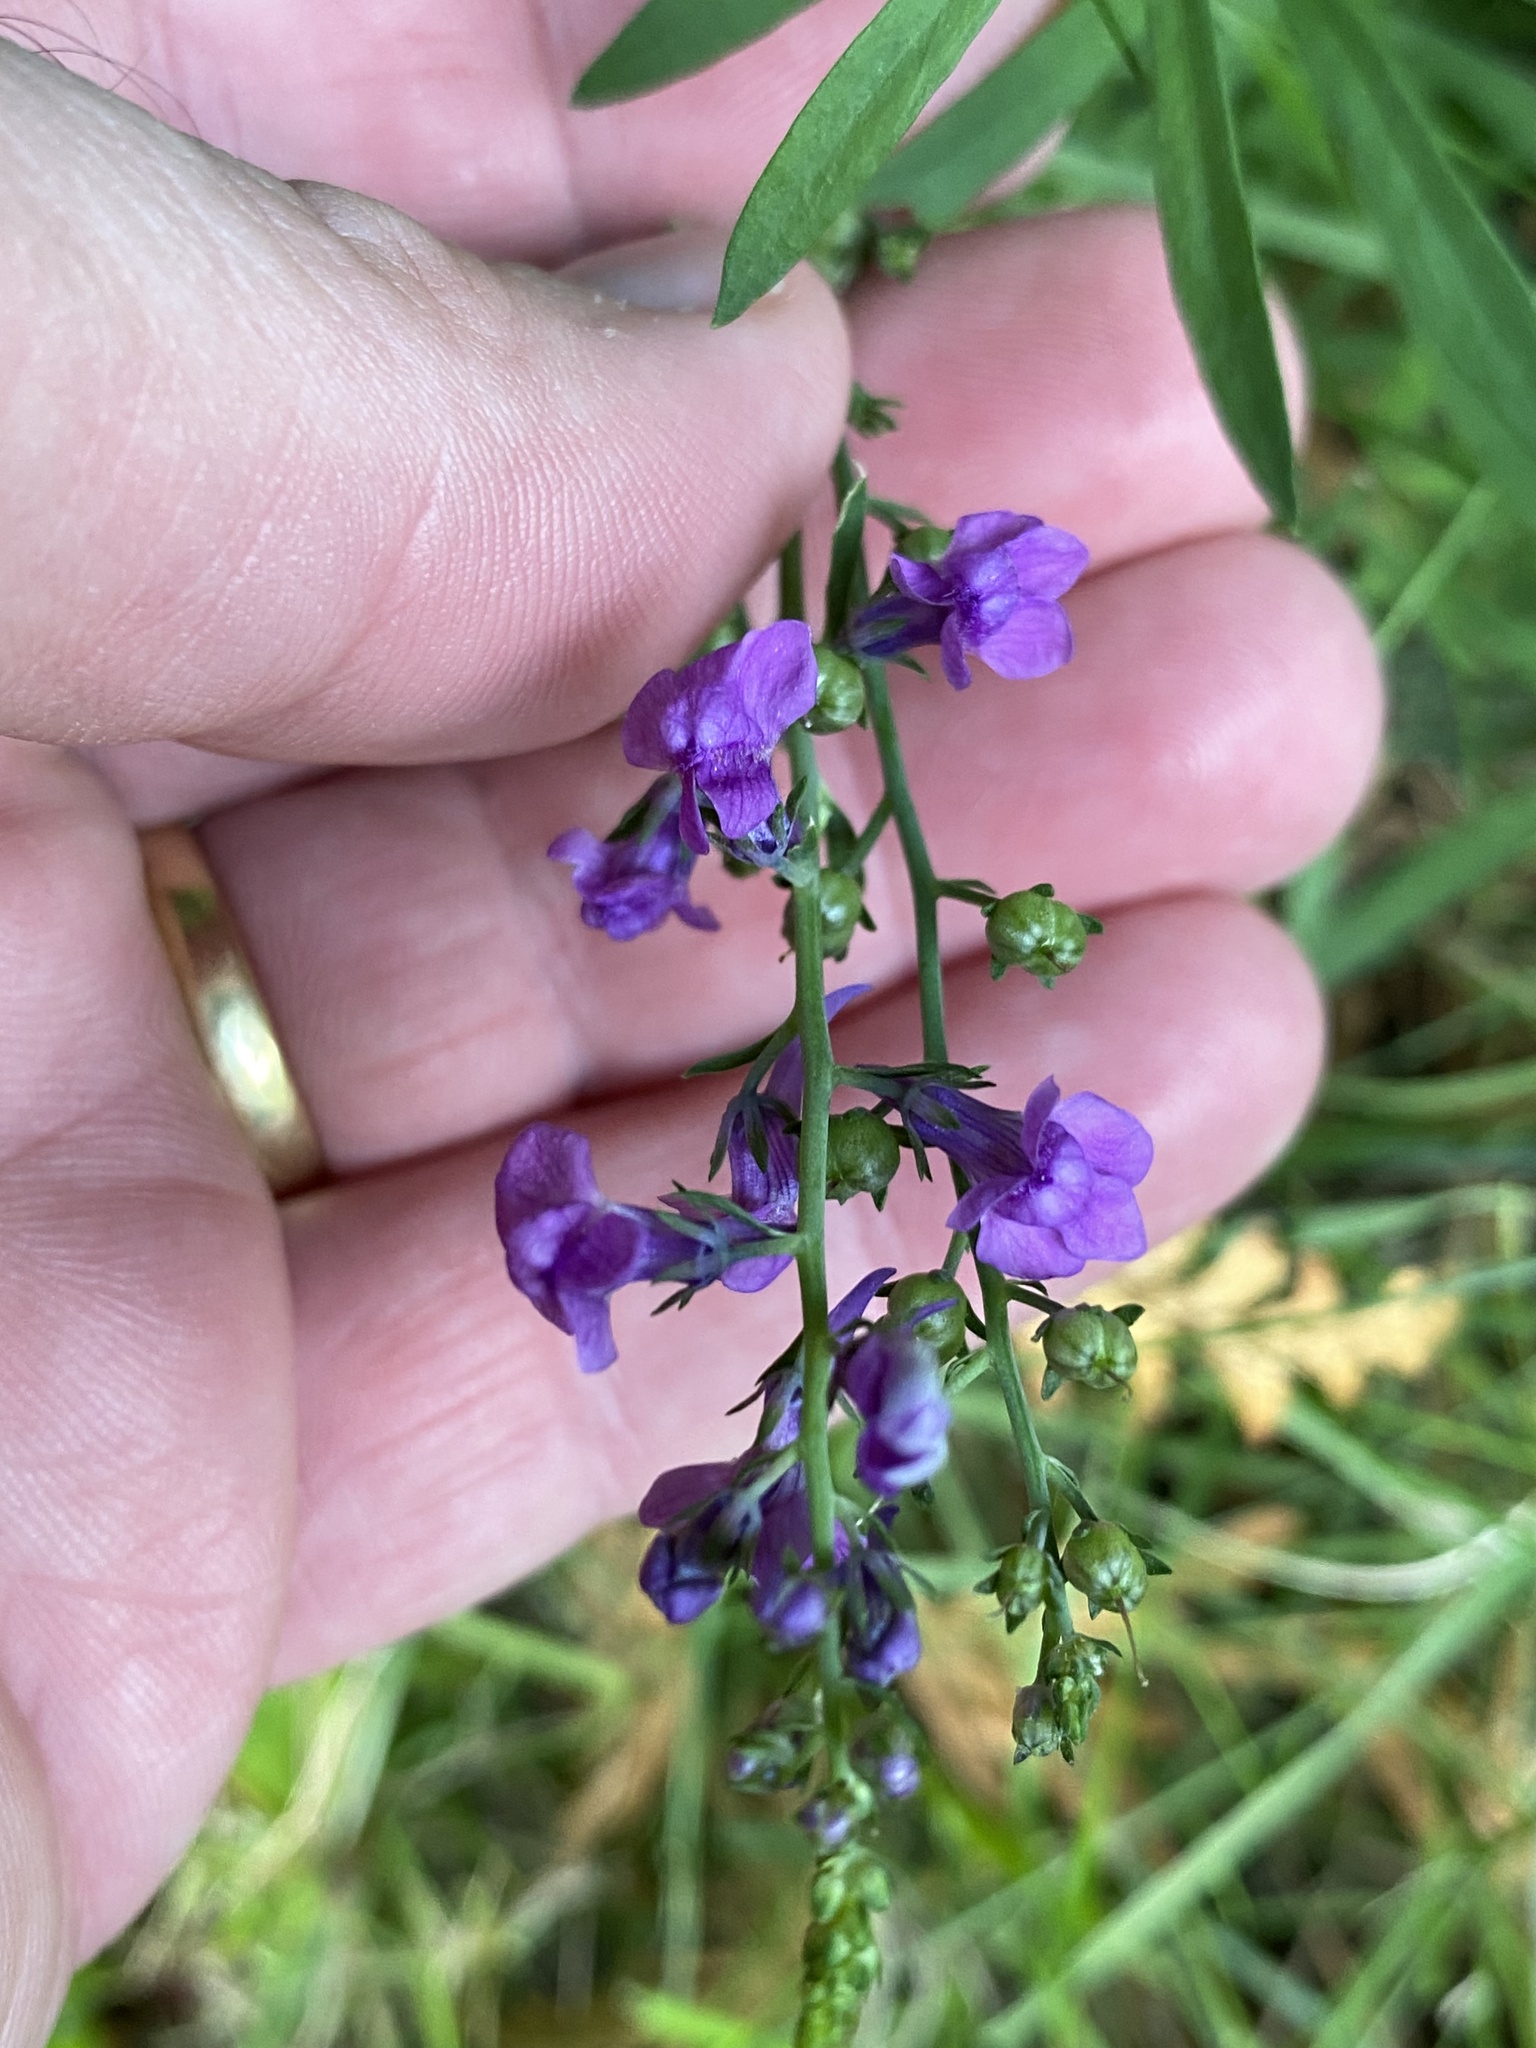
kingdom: Plantae
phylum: Tracheophyta
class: Magnoliopsida
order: Lamiales
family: Plantaginaceae
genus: Linaria
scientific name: Linaria purpurea
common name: Purple toadflax
